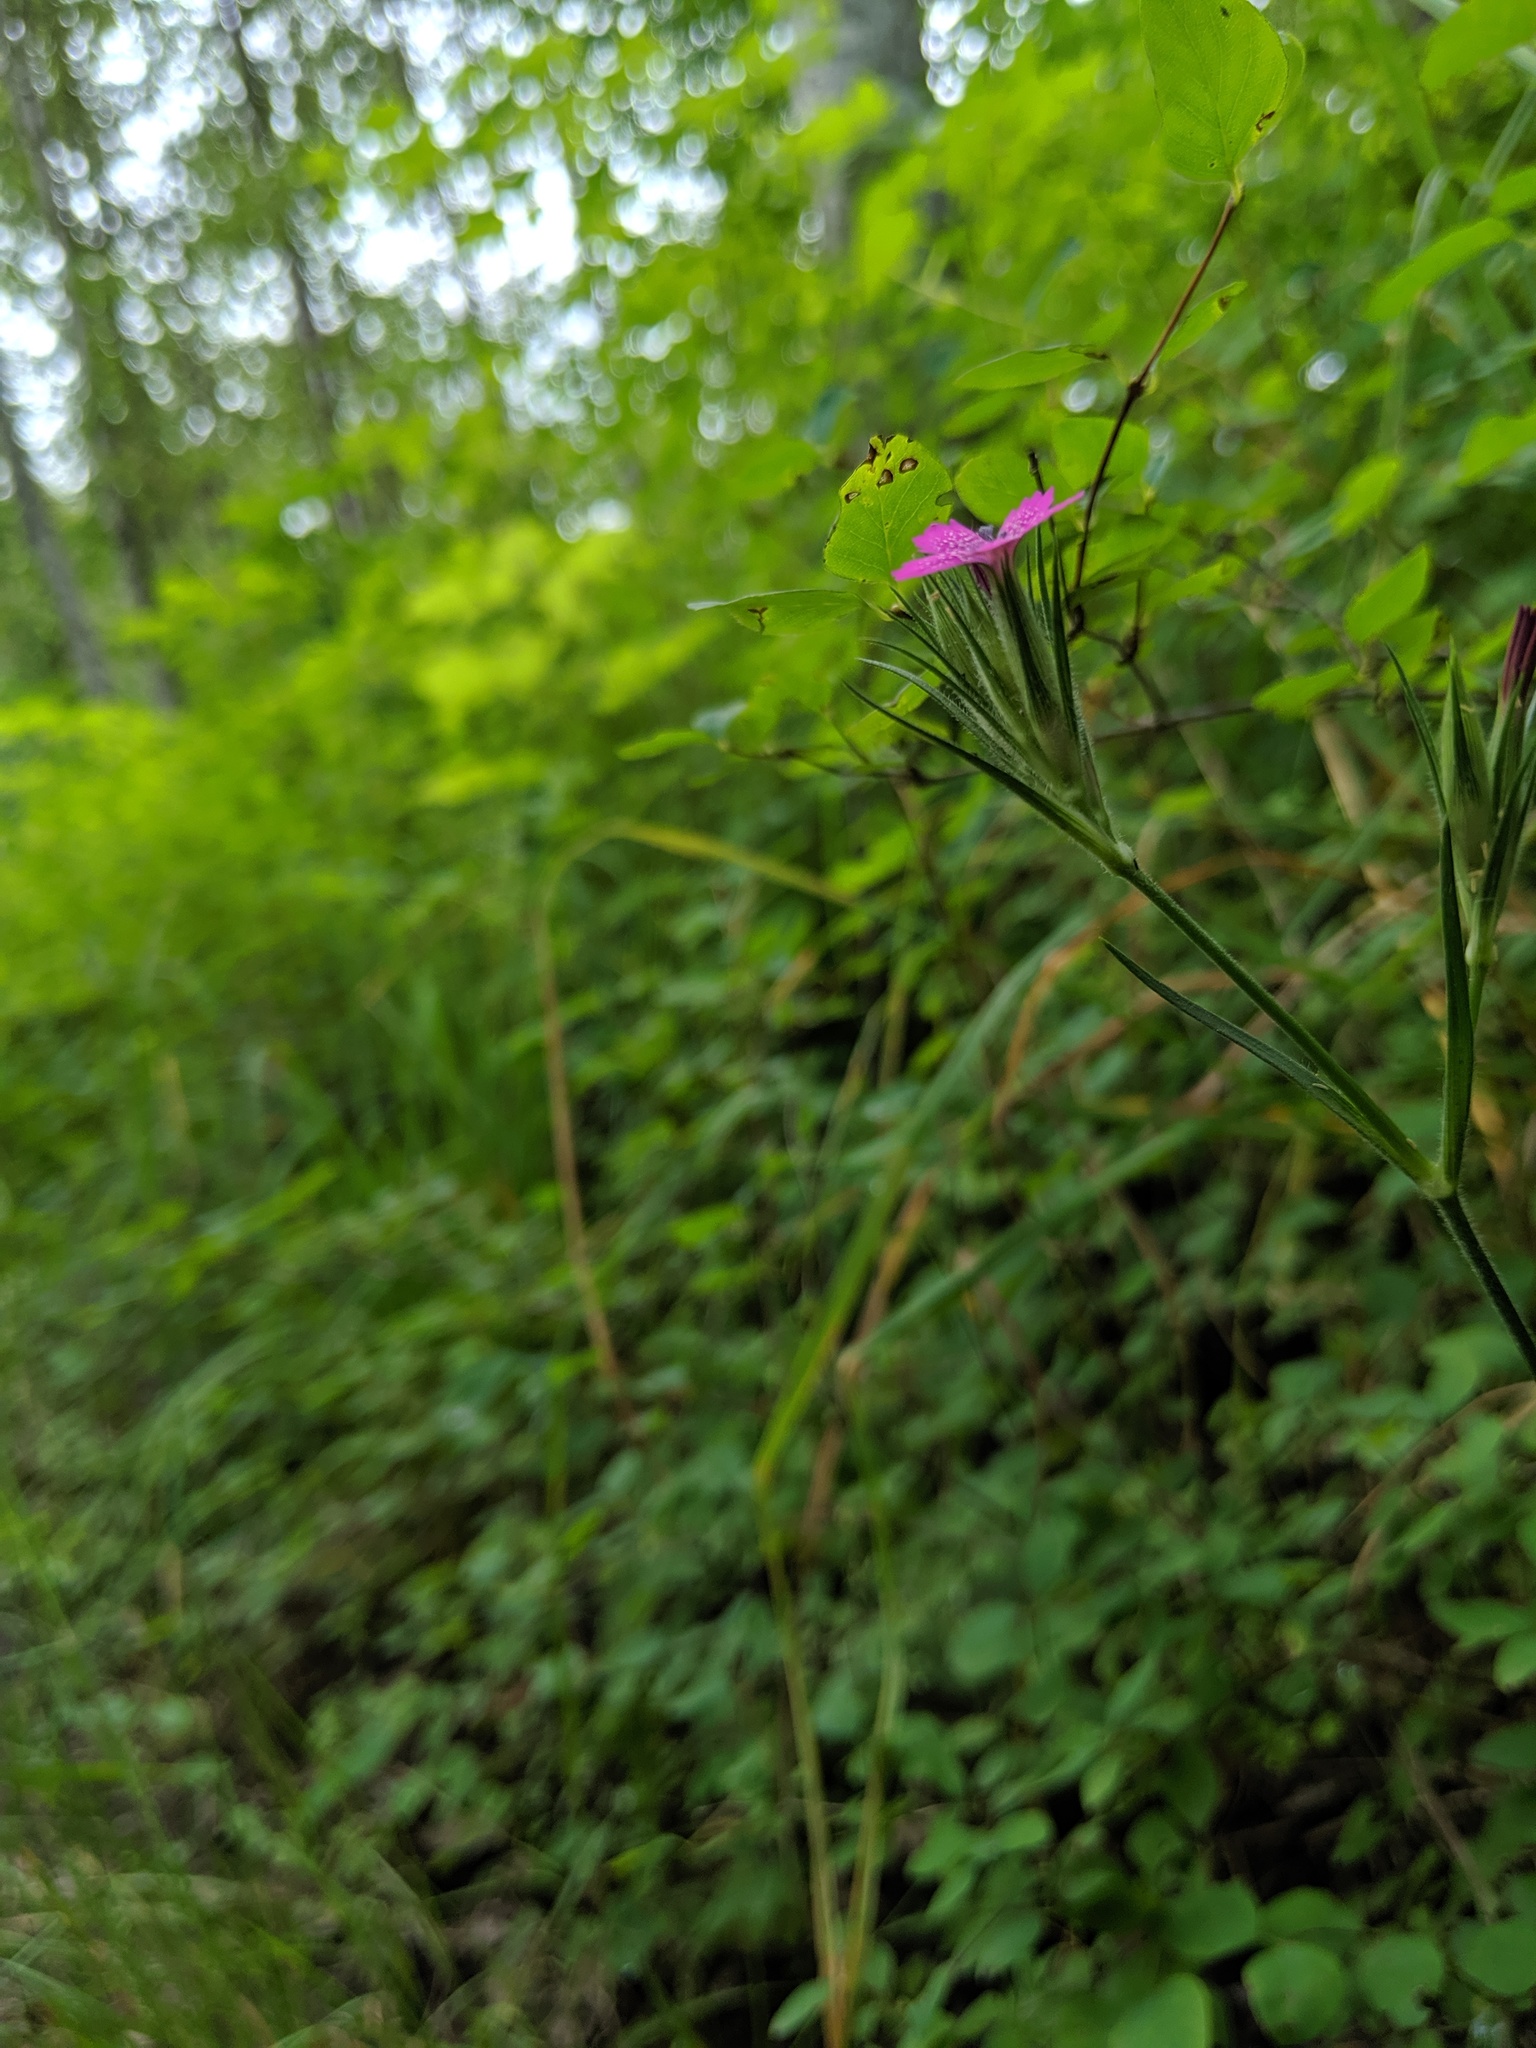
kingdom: Plantae
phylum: Tracheophyta
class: Magnoliopsida
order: Caryophyllales
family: Caryophyllaceae
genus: Dianthus
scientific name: Dianthus armeria
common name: Deptford pink
